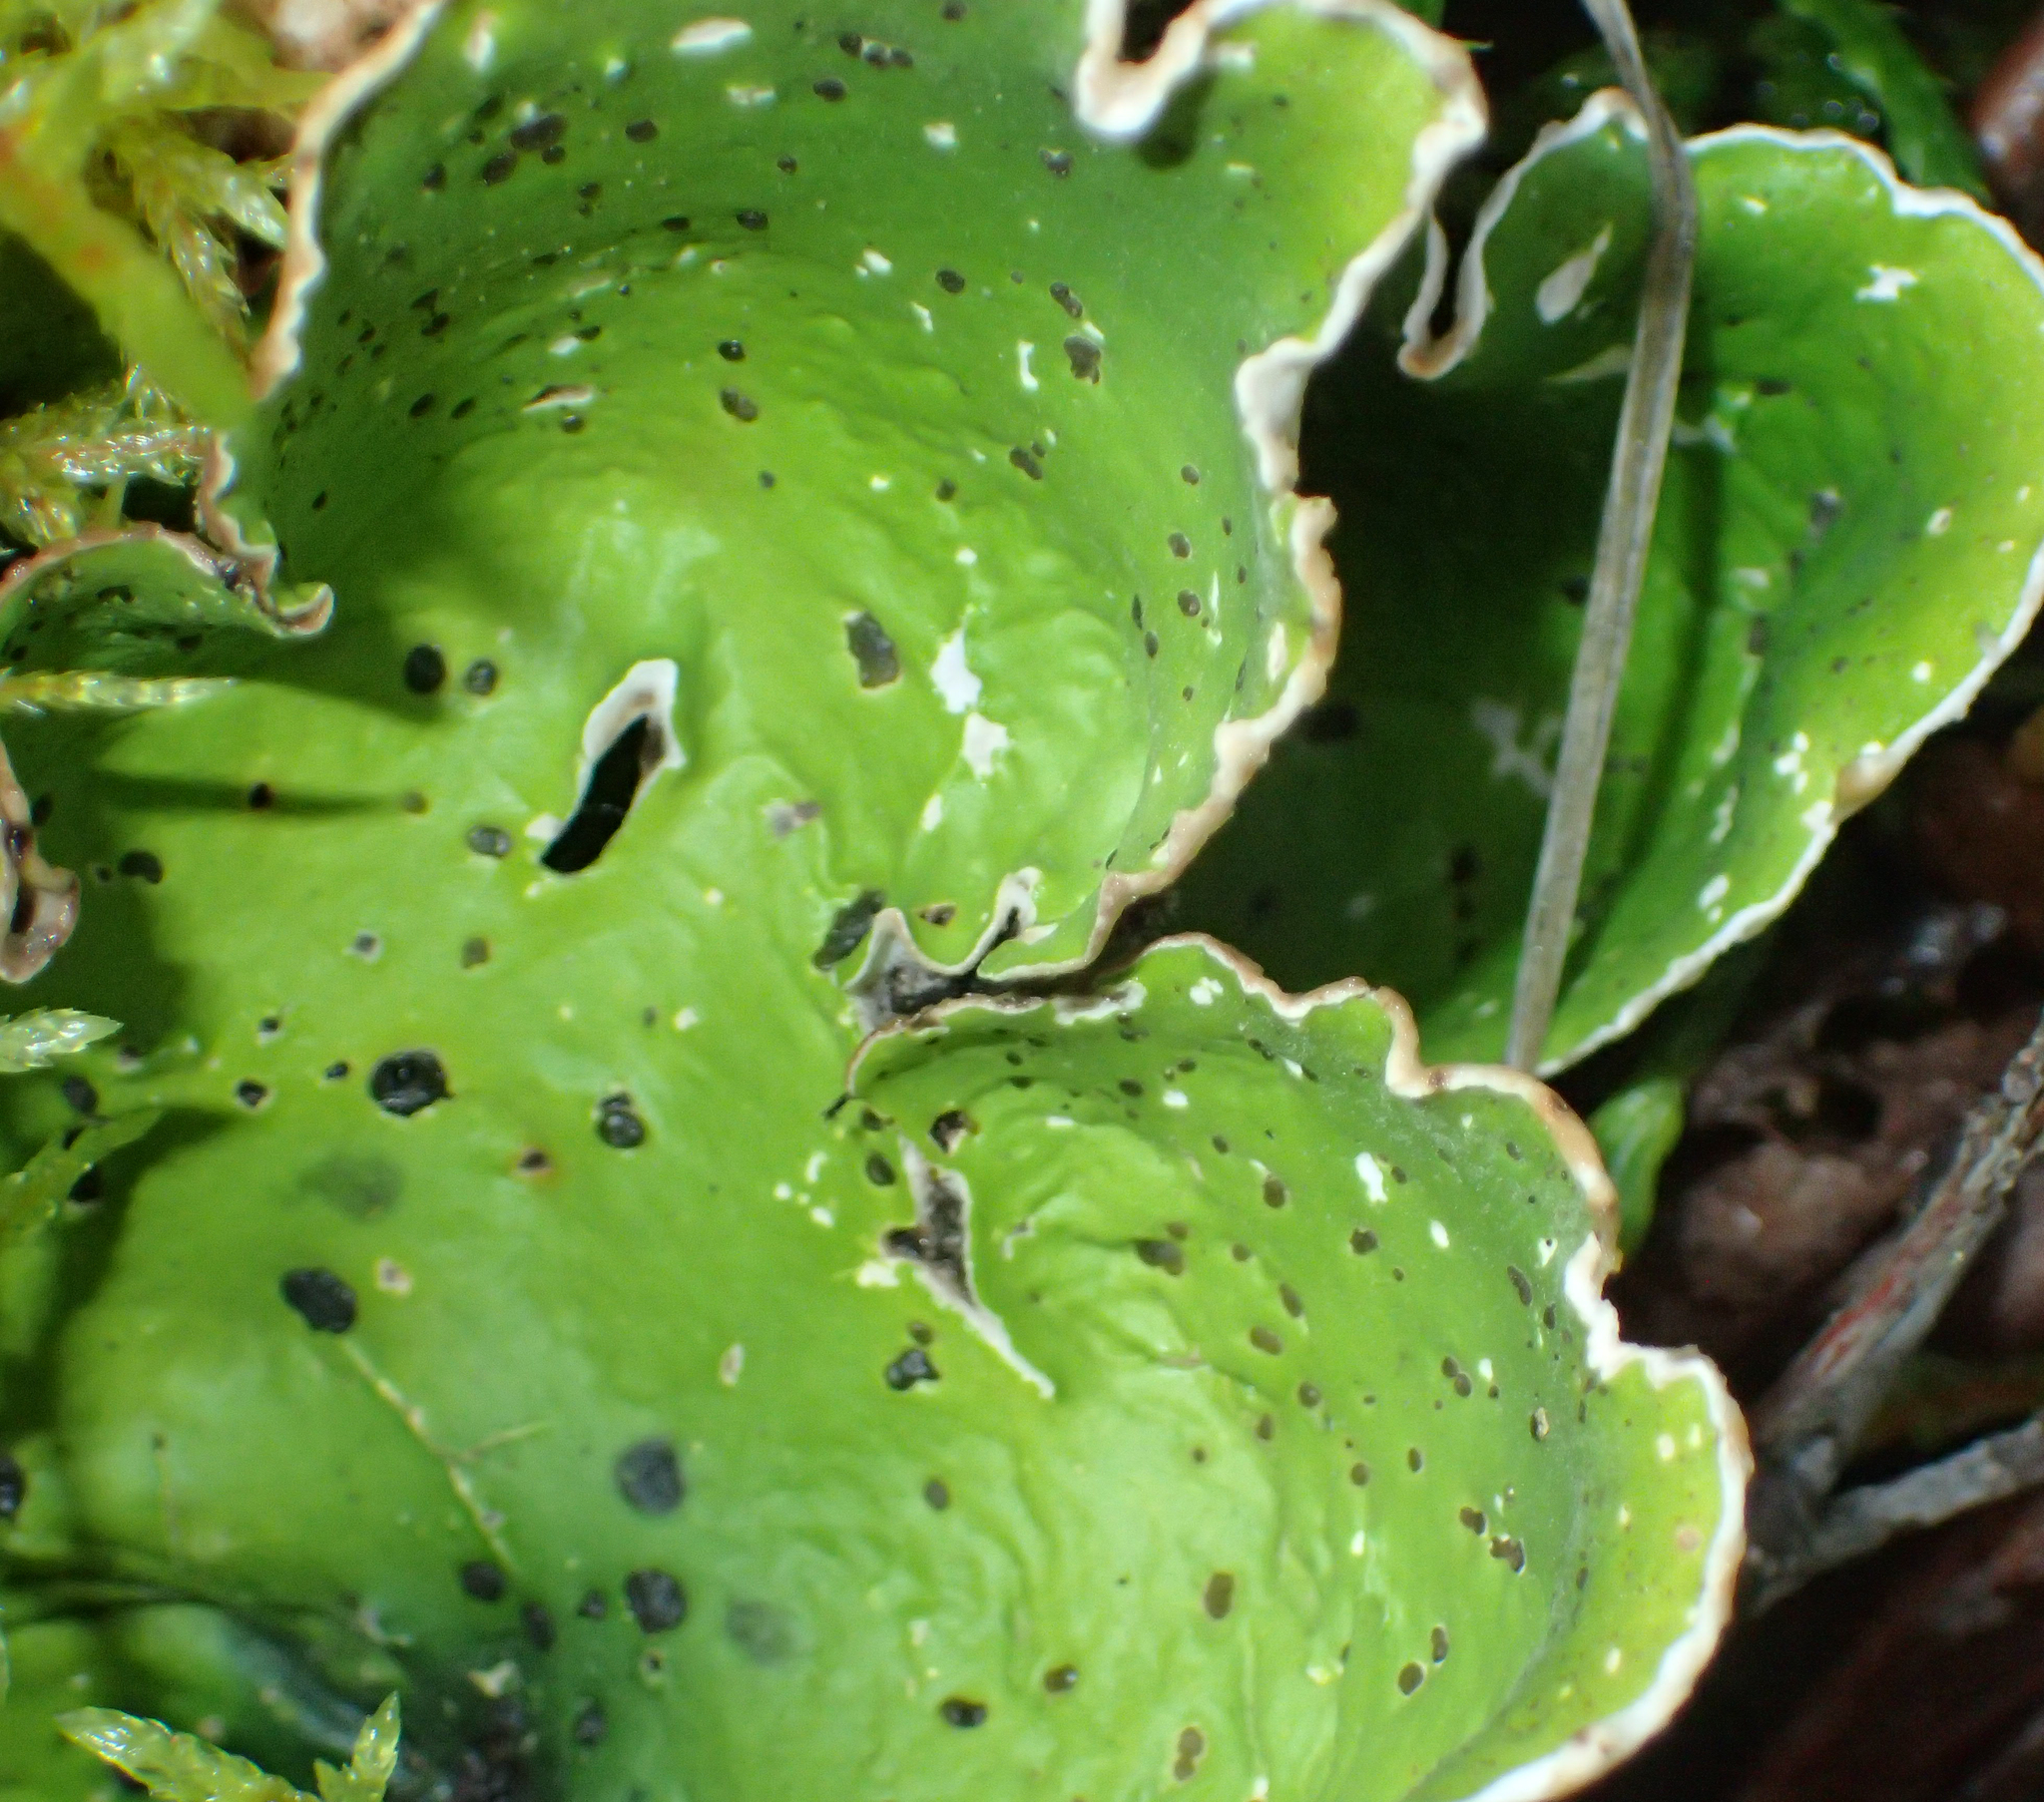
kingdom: Fungi
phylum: Ascomycota
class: Lecanoromycetes
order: Peltigerales
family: Peltigeraceae
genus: Peltigera
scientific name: Peltigera aphthosa
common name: Common freckle pelt lichen
